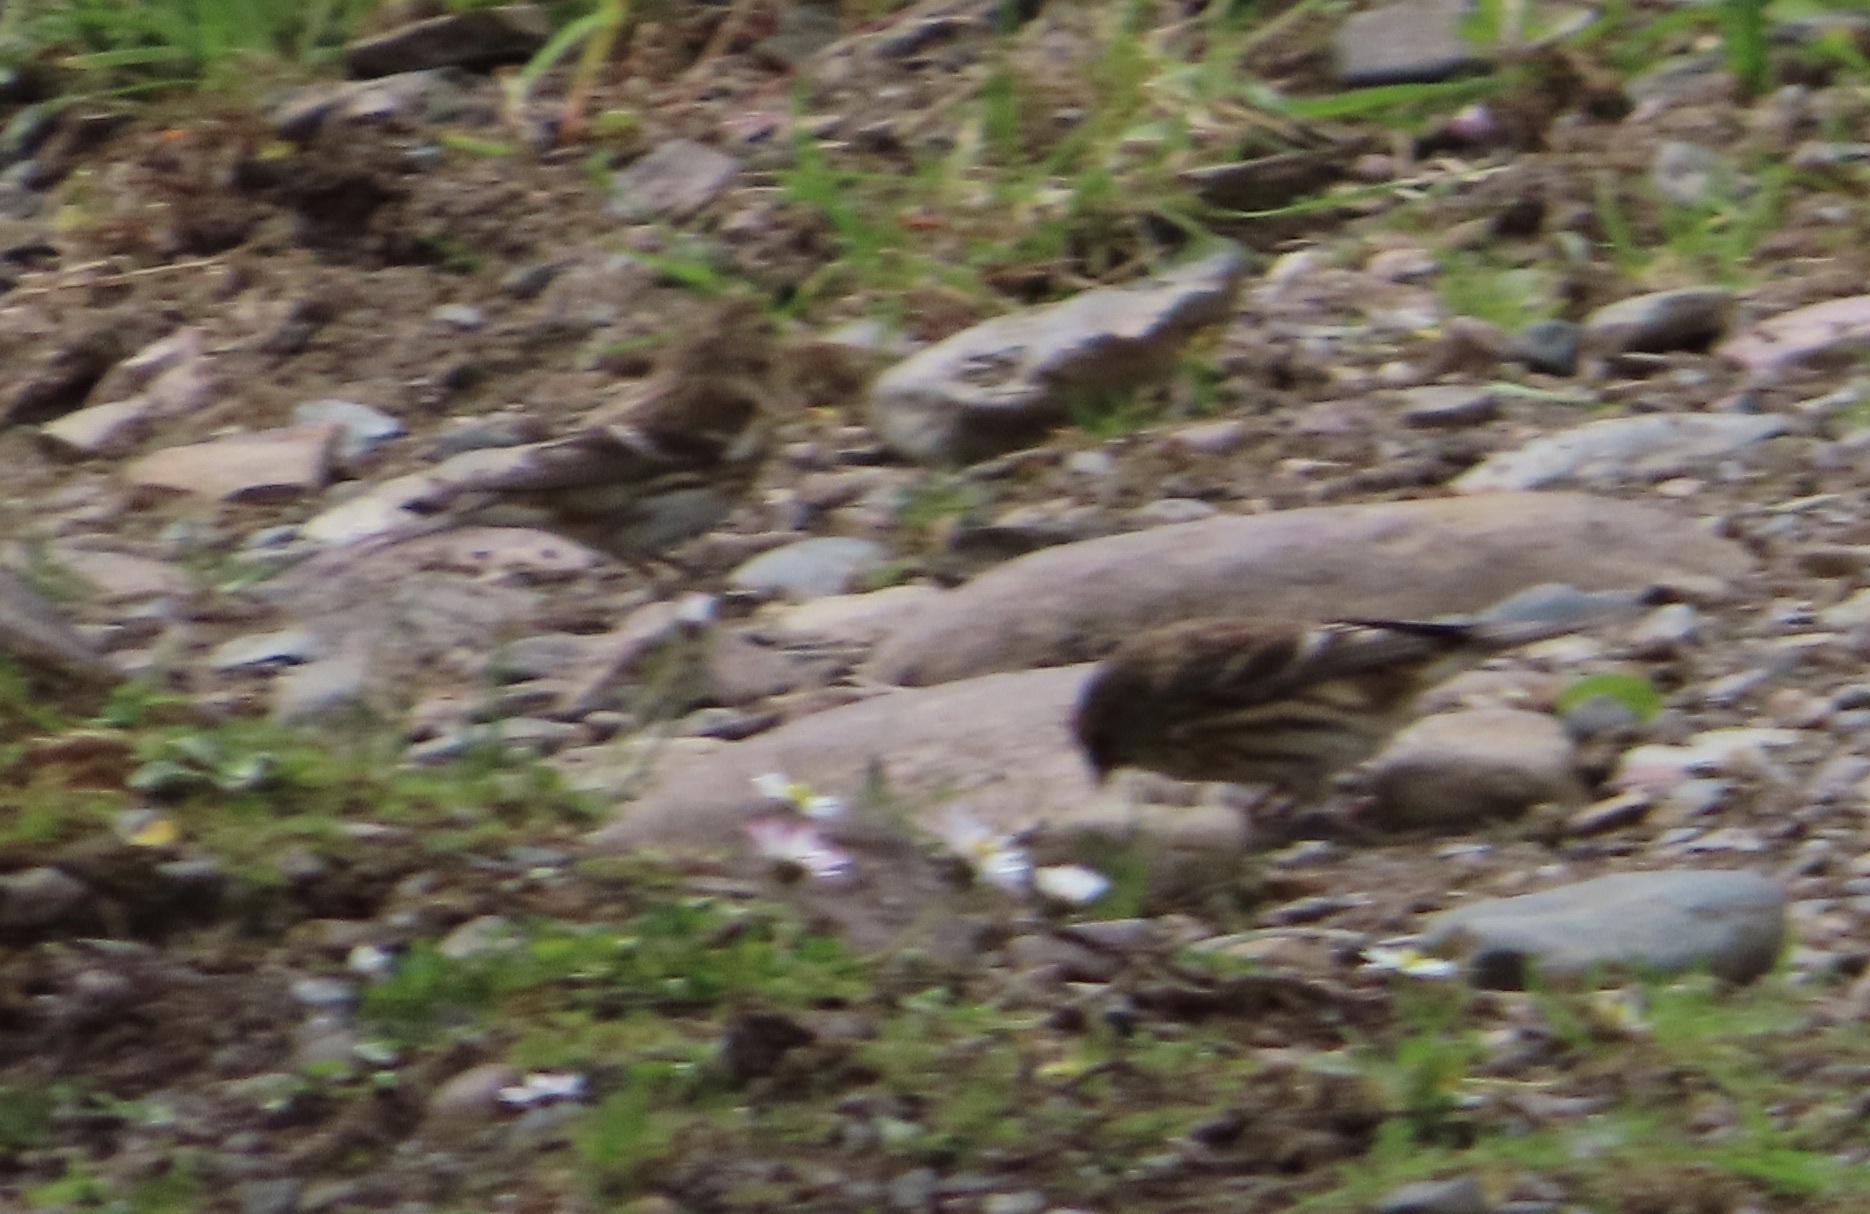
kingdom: Animalia
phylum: Chordata
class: Aves
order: Passeriformes
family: Fringillidae
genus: Acanthis
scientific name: Acanthis flammea
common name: Common redpoll
